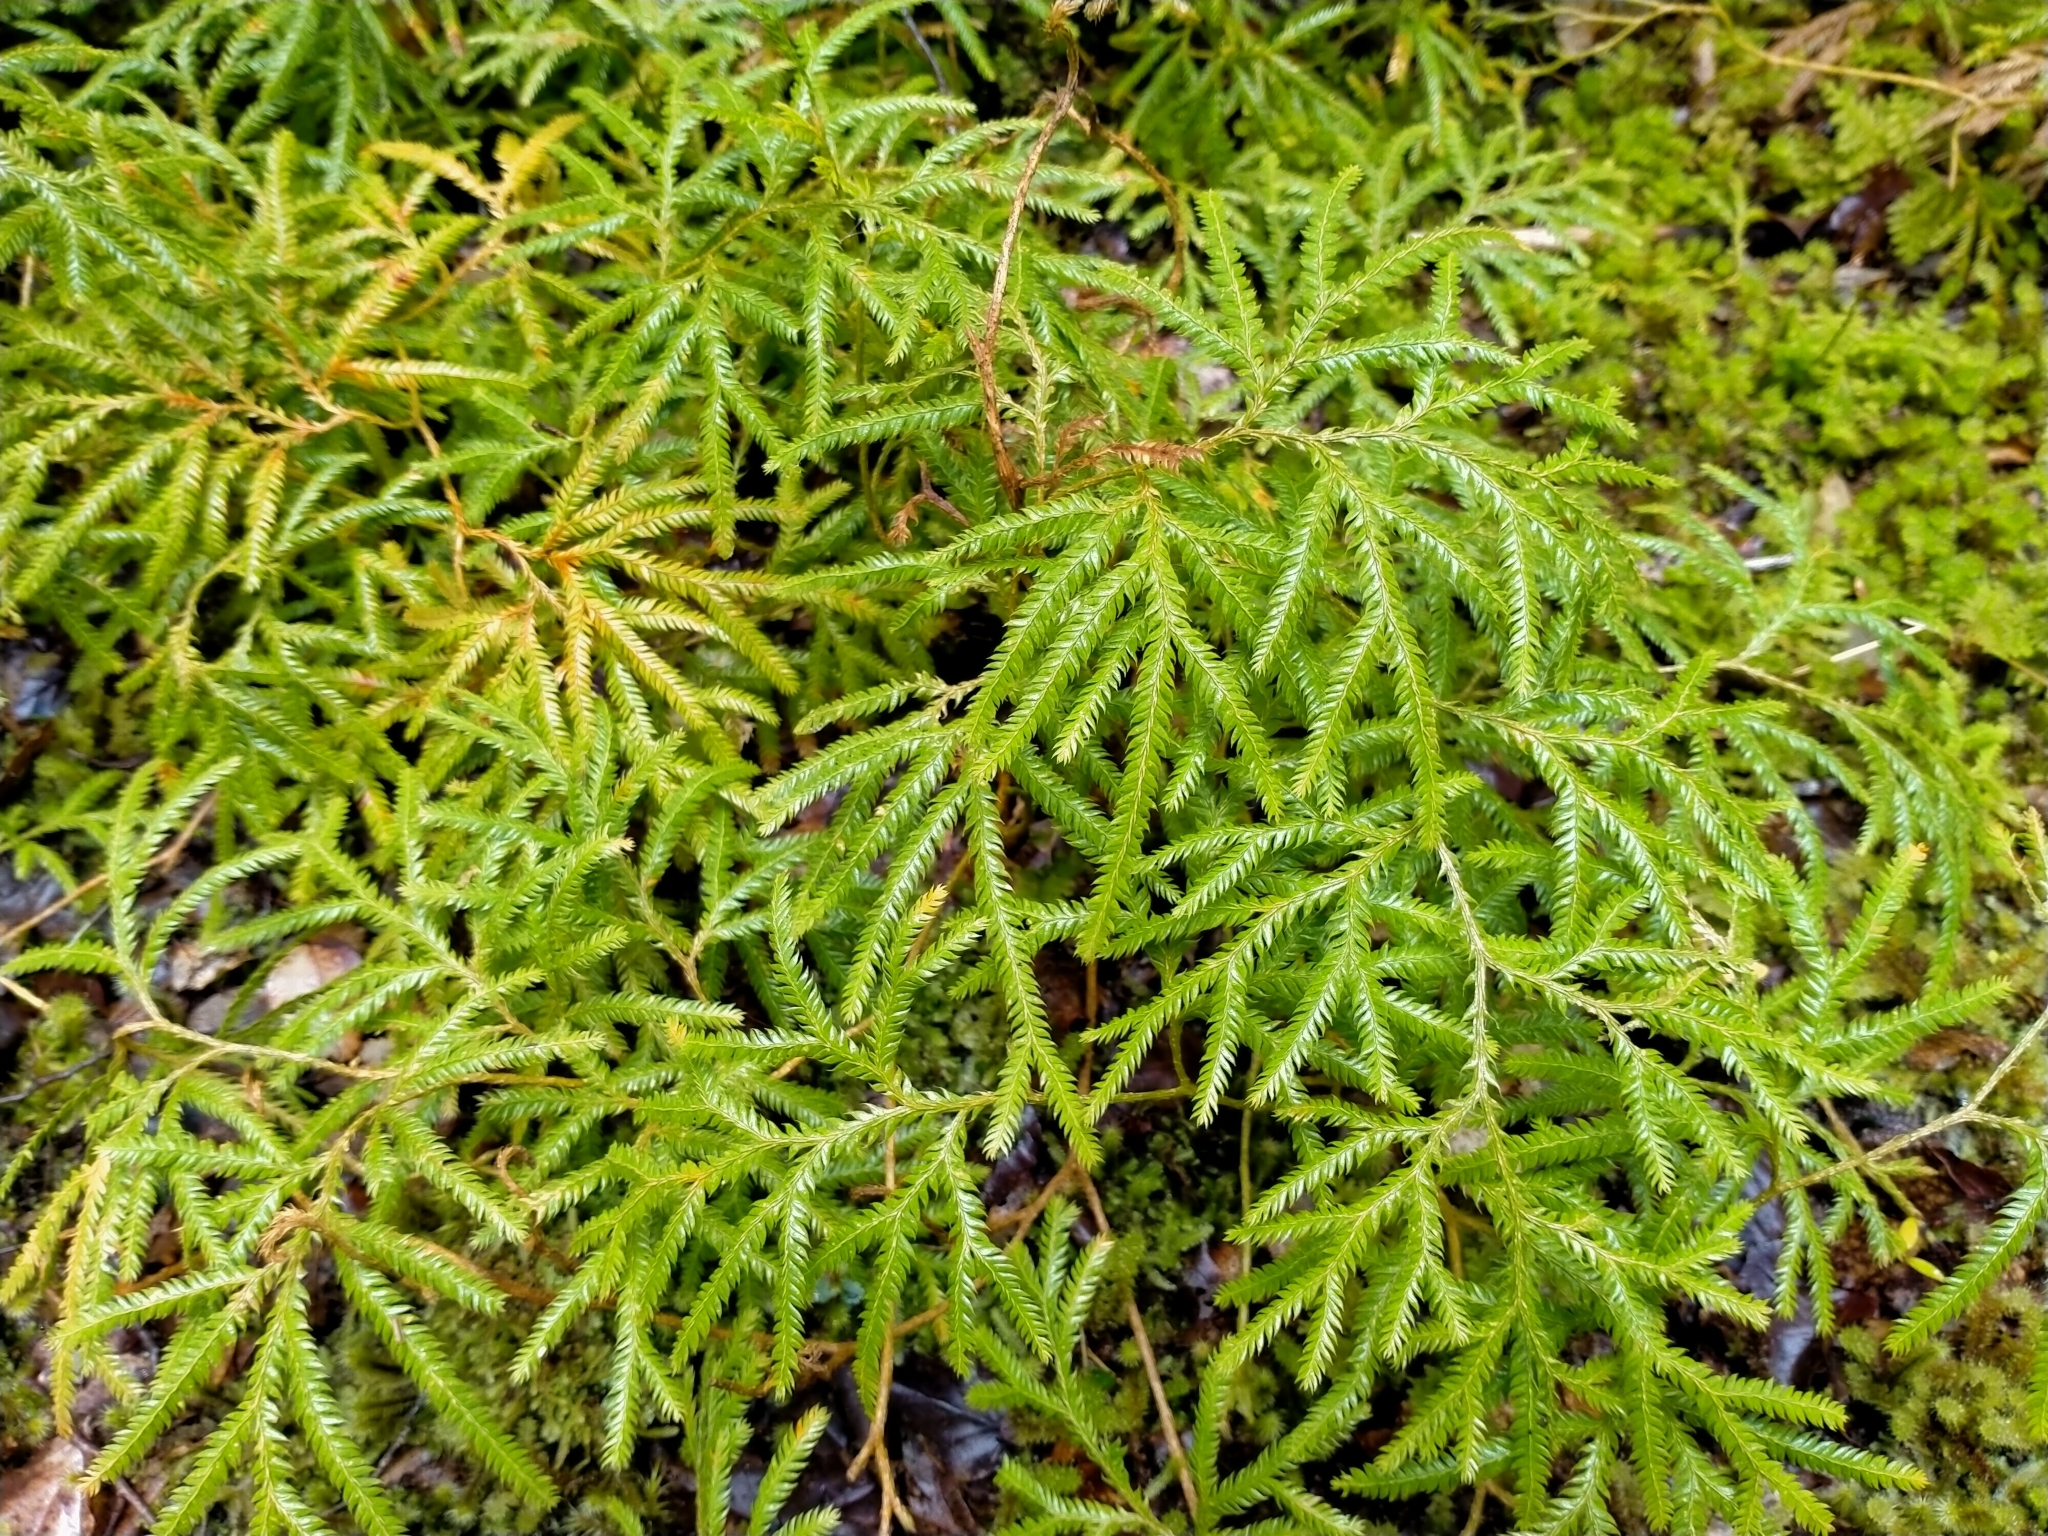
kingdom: Plantae
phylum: Tracheophyta
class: Lycopodiopsida
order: Lycopodiales
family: Lycopodiaceae
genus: Lycopodium
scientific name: Lycopodium volubile
